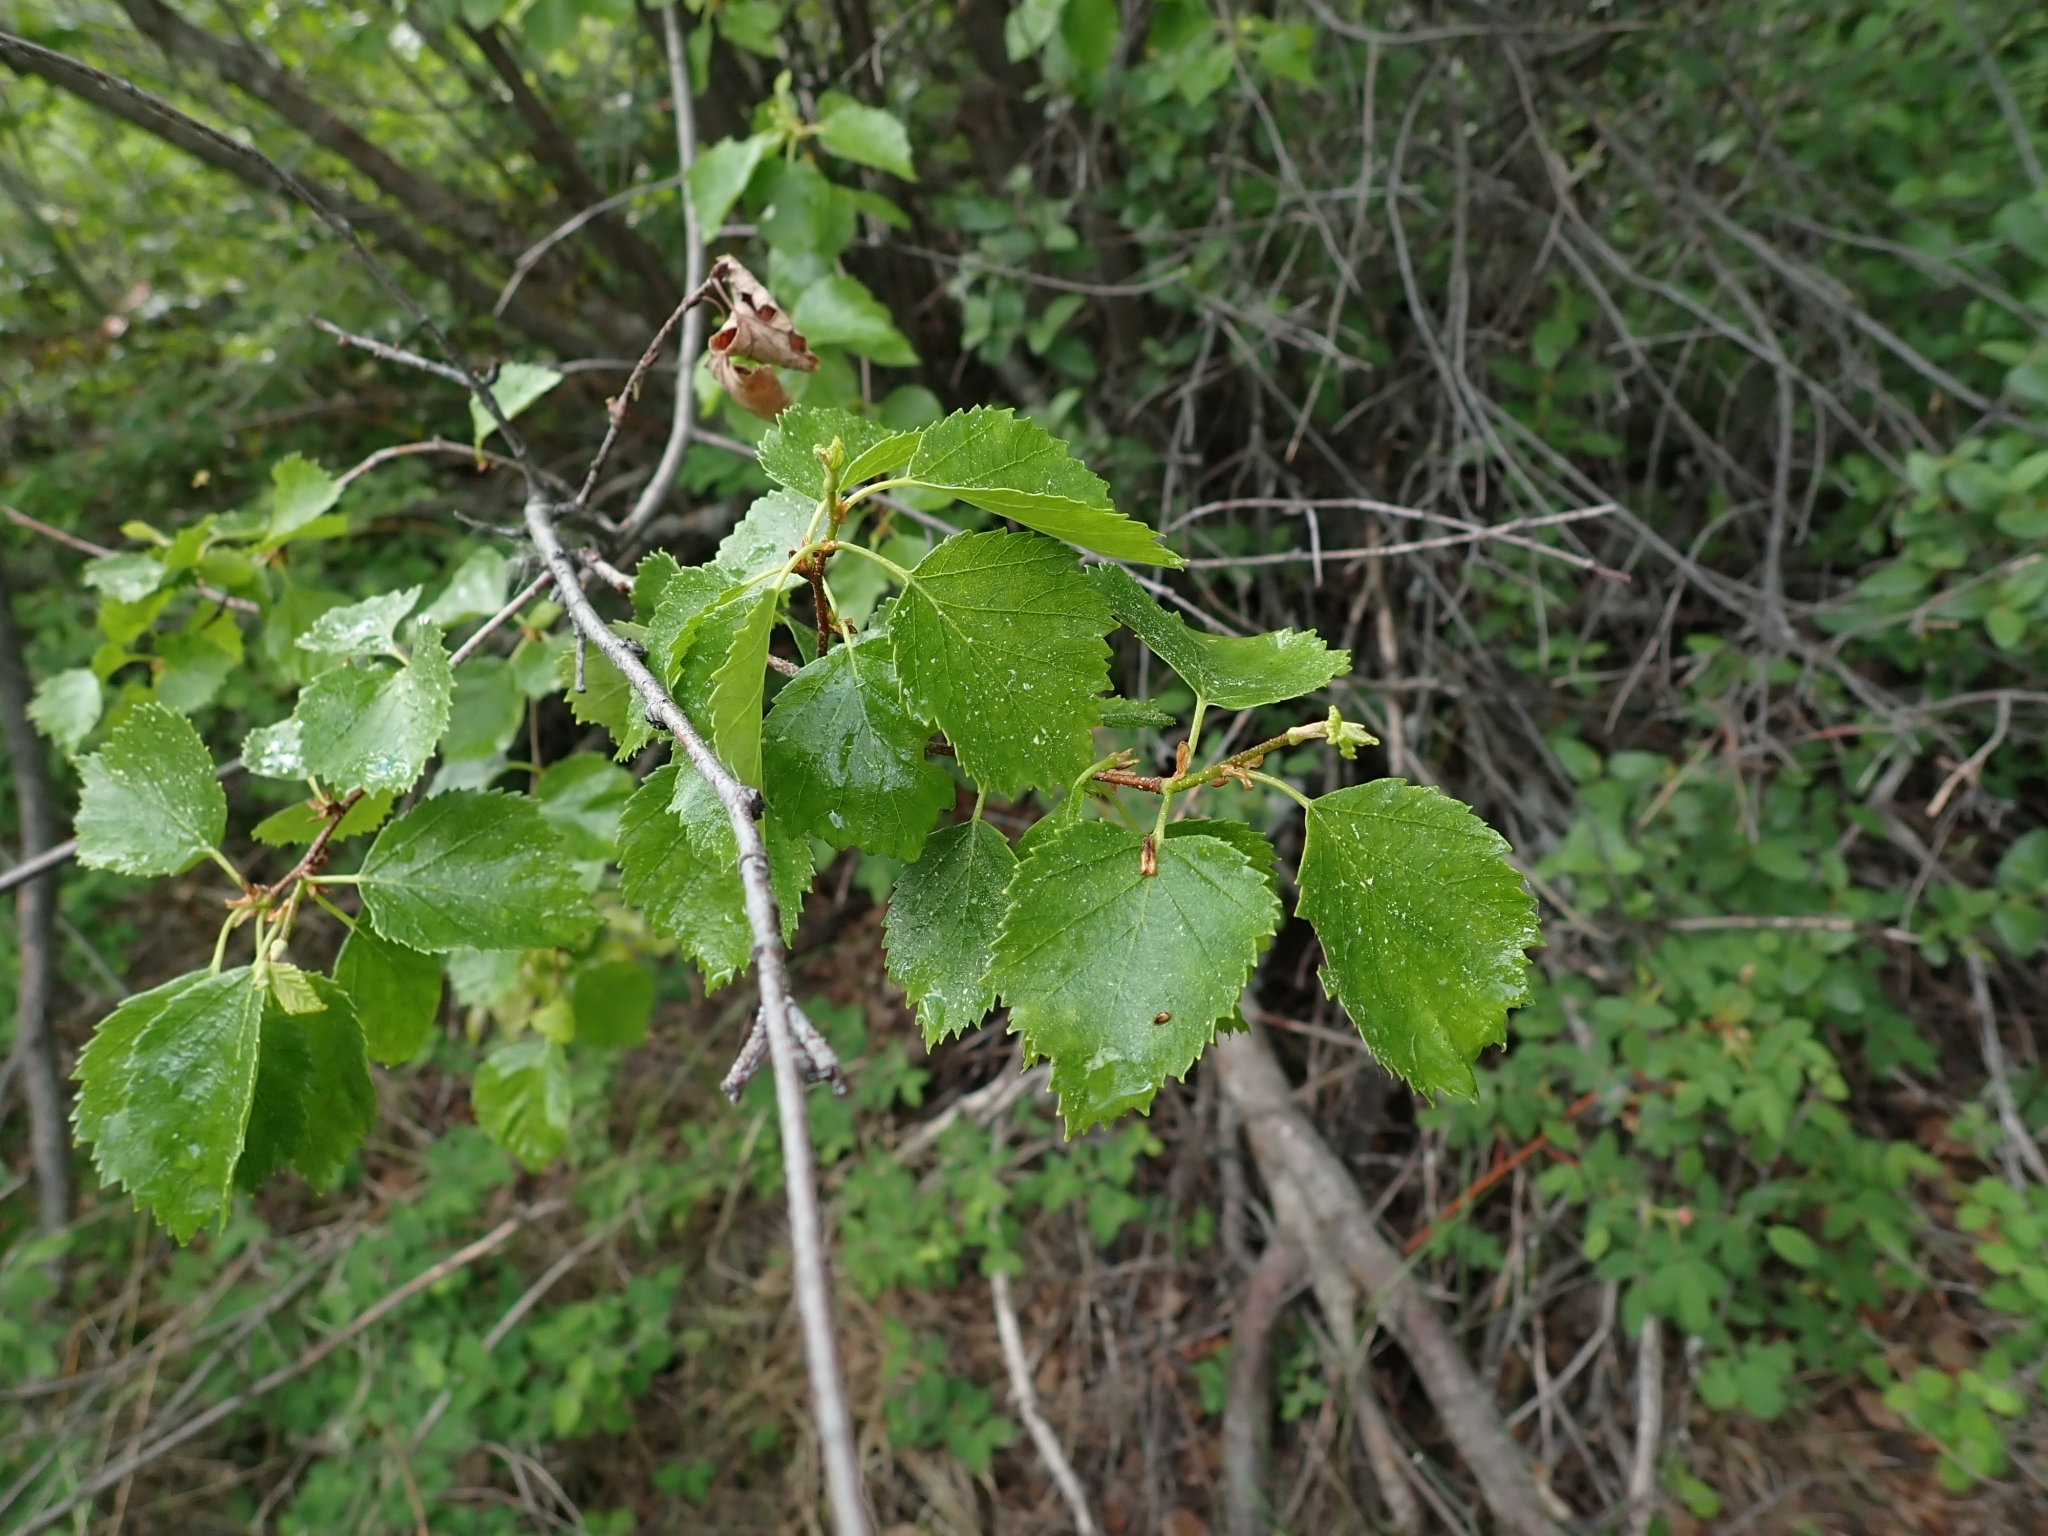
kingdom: Plantae
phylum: Tracheophyta
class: Magnoliopsida
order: Fagales
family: Betulaceae
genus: Betula
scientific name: Betula occidentalis
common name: River birch
